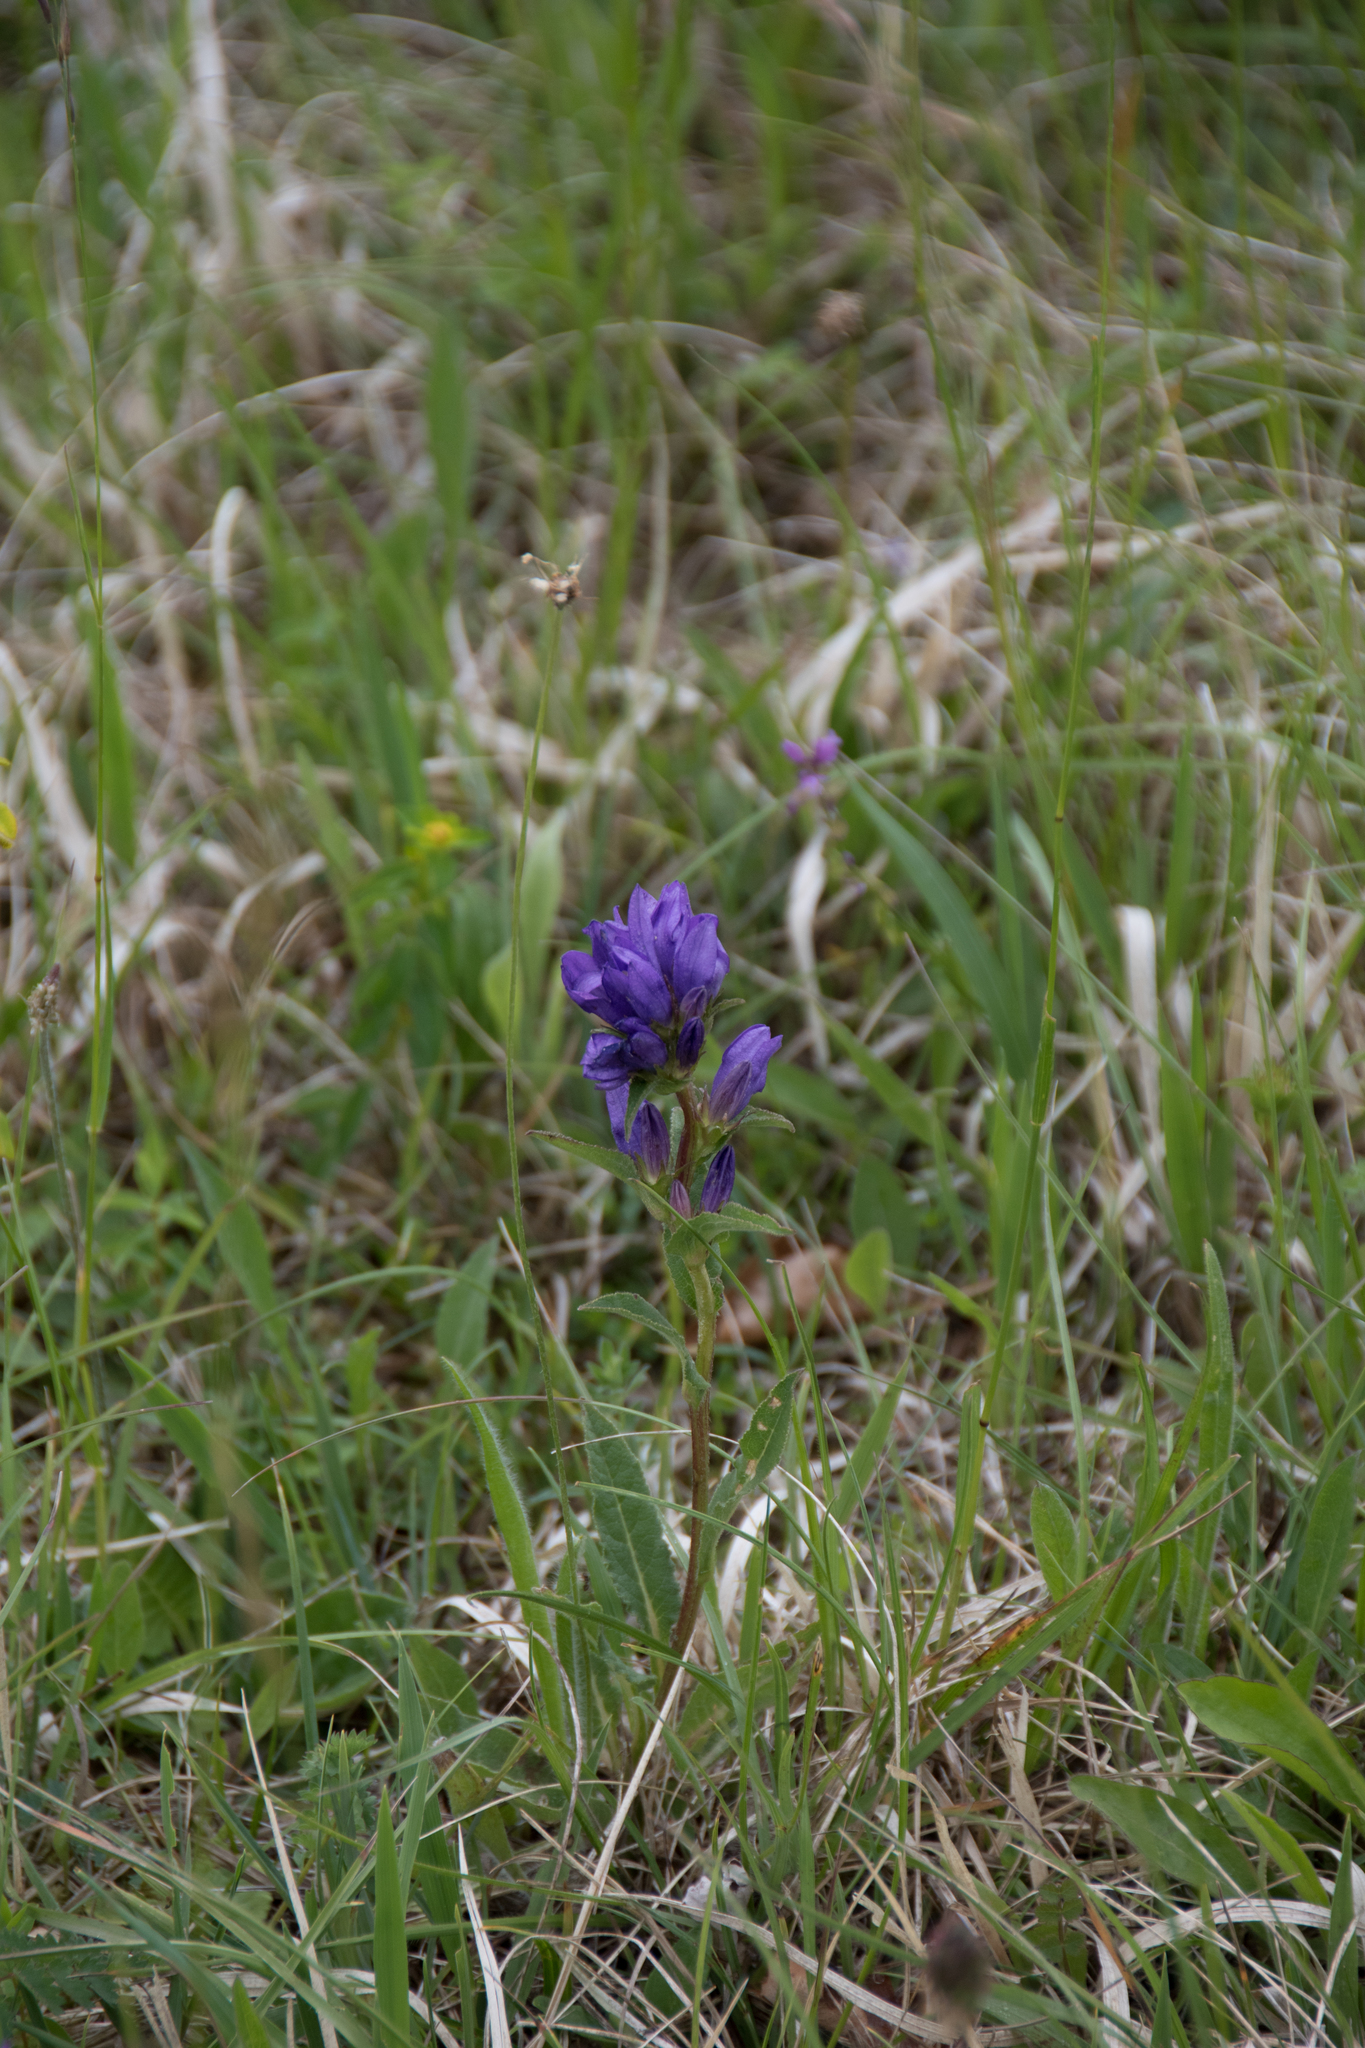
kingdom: Plantae
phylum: Tracheophyta
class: Magnoliopsida
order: Asterales
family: Campanulaceae
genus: Campanula
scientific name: Campanula glomerata
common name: Clustered bellflower
